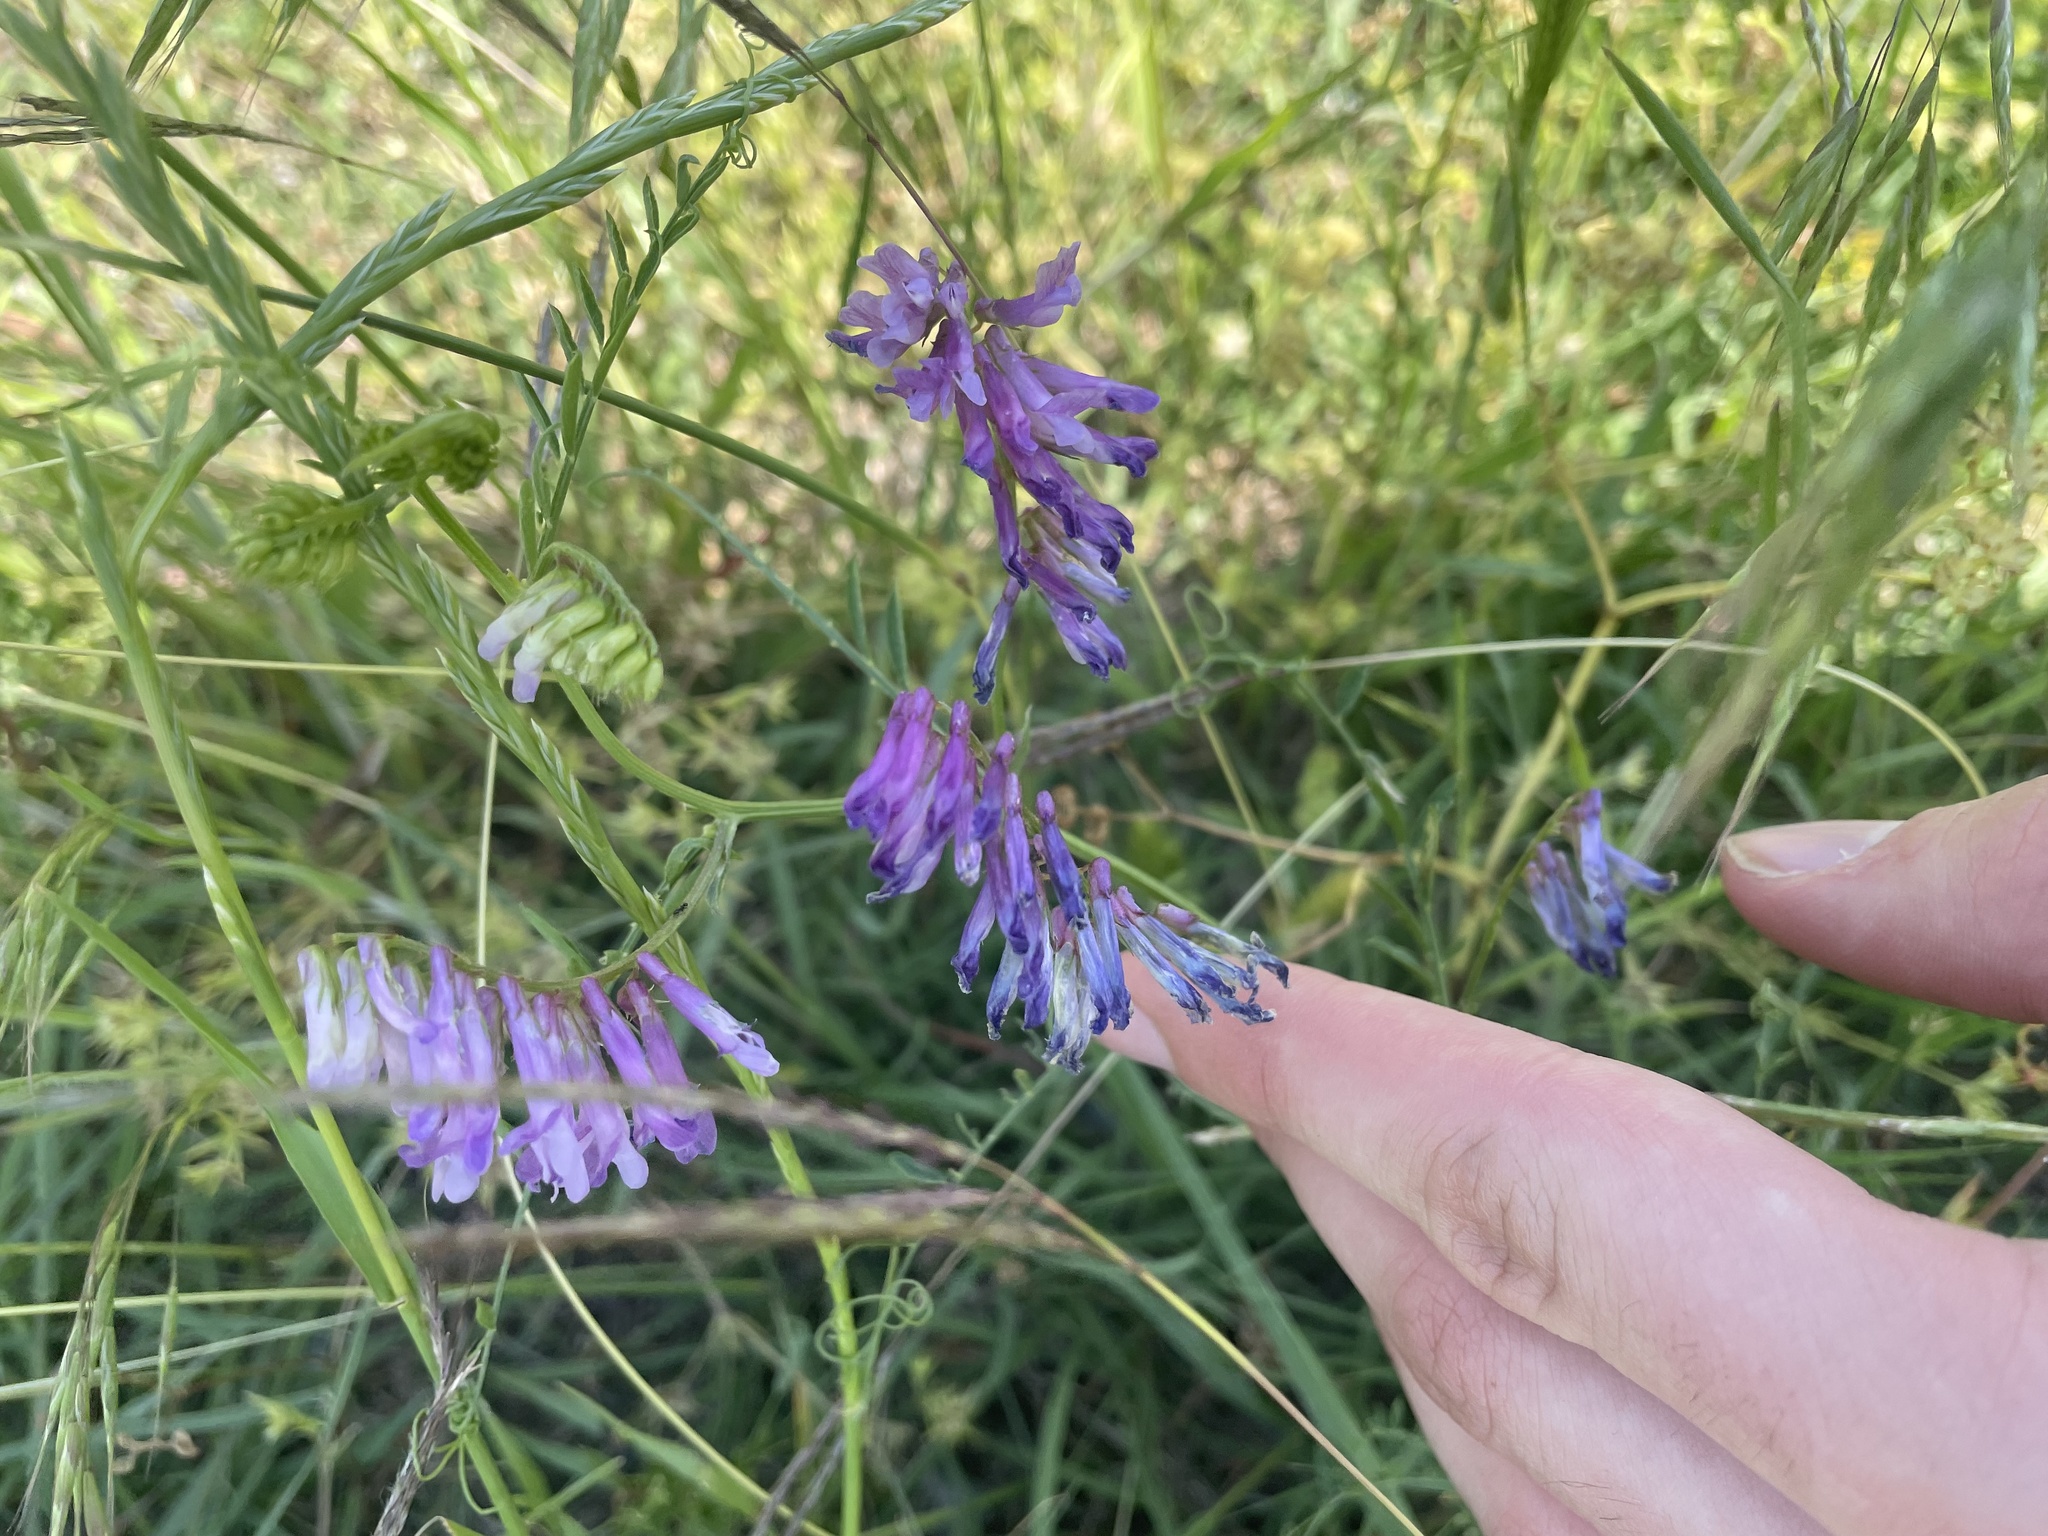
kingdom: Plantae
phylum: Tracheophyta
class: Magnoliopsida
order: Fabales
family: Fabaceae
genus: Vicia
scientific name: Vicia villosa
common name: Fodder vetch
